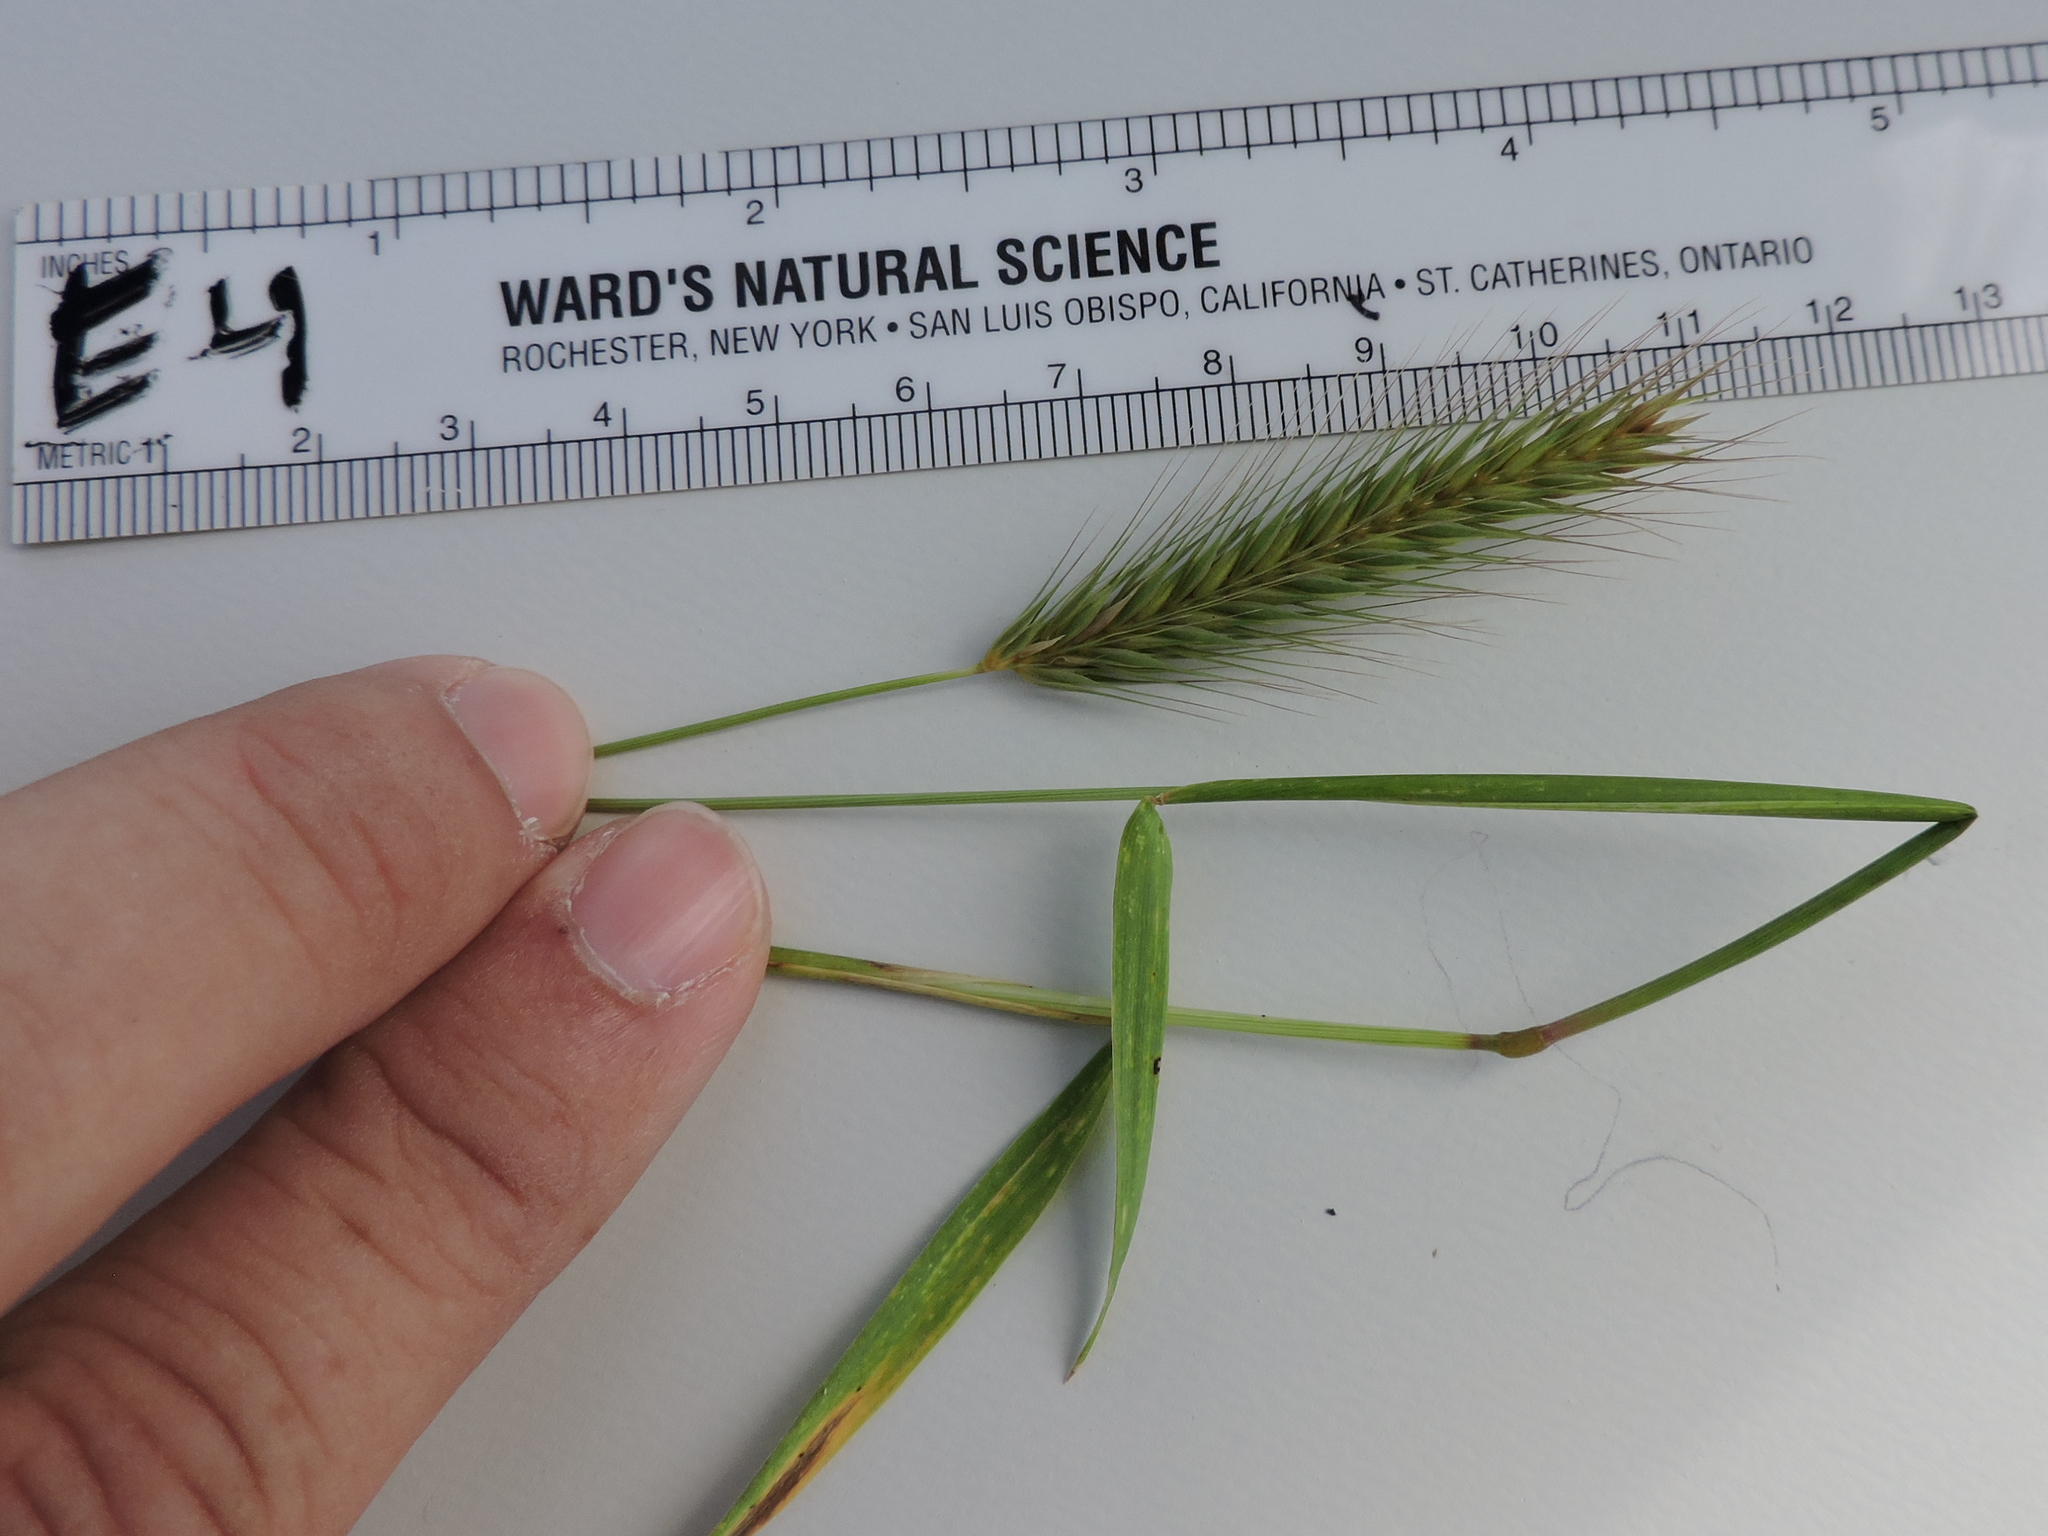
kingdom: Plantae
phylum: Tracheophyta
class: Liliopsida
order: Poales
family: Poaceae
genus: Hordeum
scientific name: Hordeum pusillum
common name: Little barley
